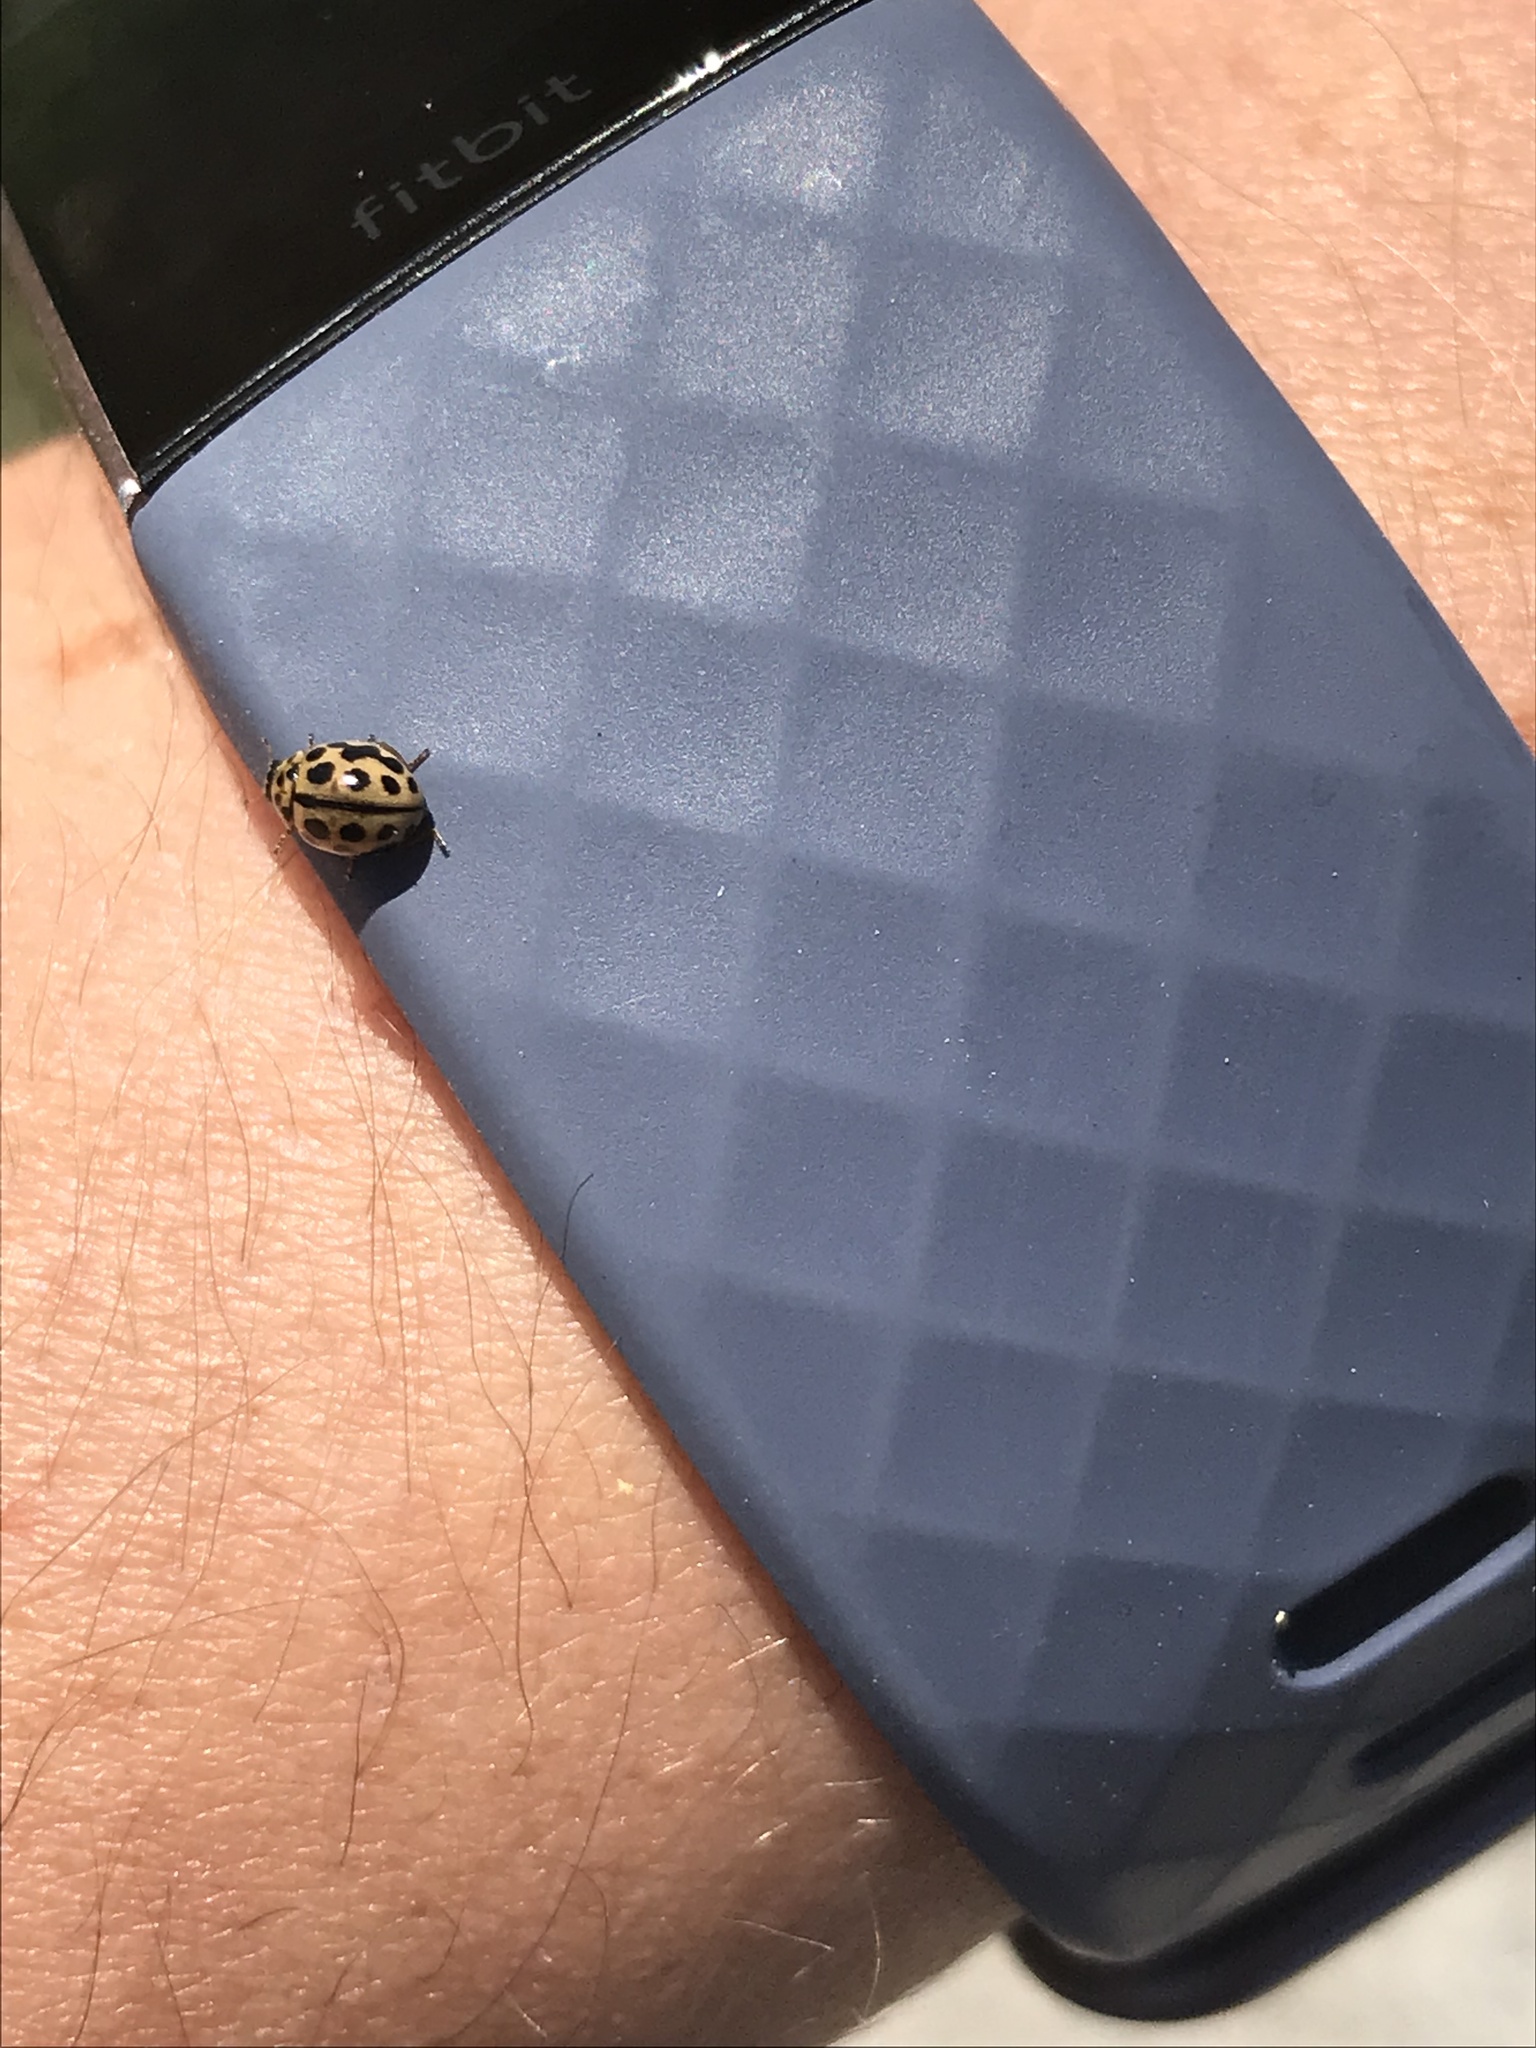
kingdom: Animalia
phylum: Arthropoda
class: Insecta
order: Coleoptera
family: Coccinellidae
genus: Tytthaspis
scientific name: Tytthaspis sedecimpunctata
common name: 16-spot ladybird
